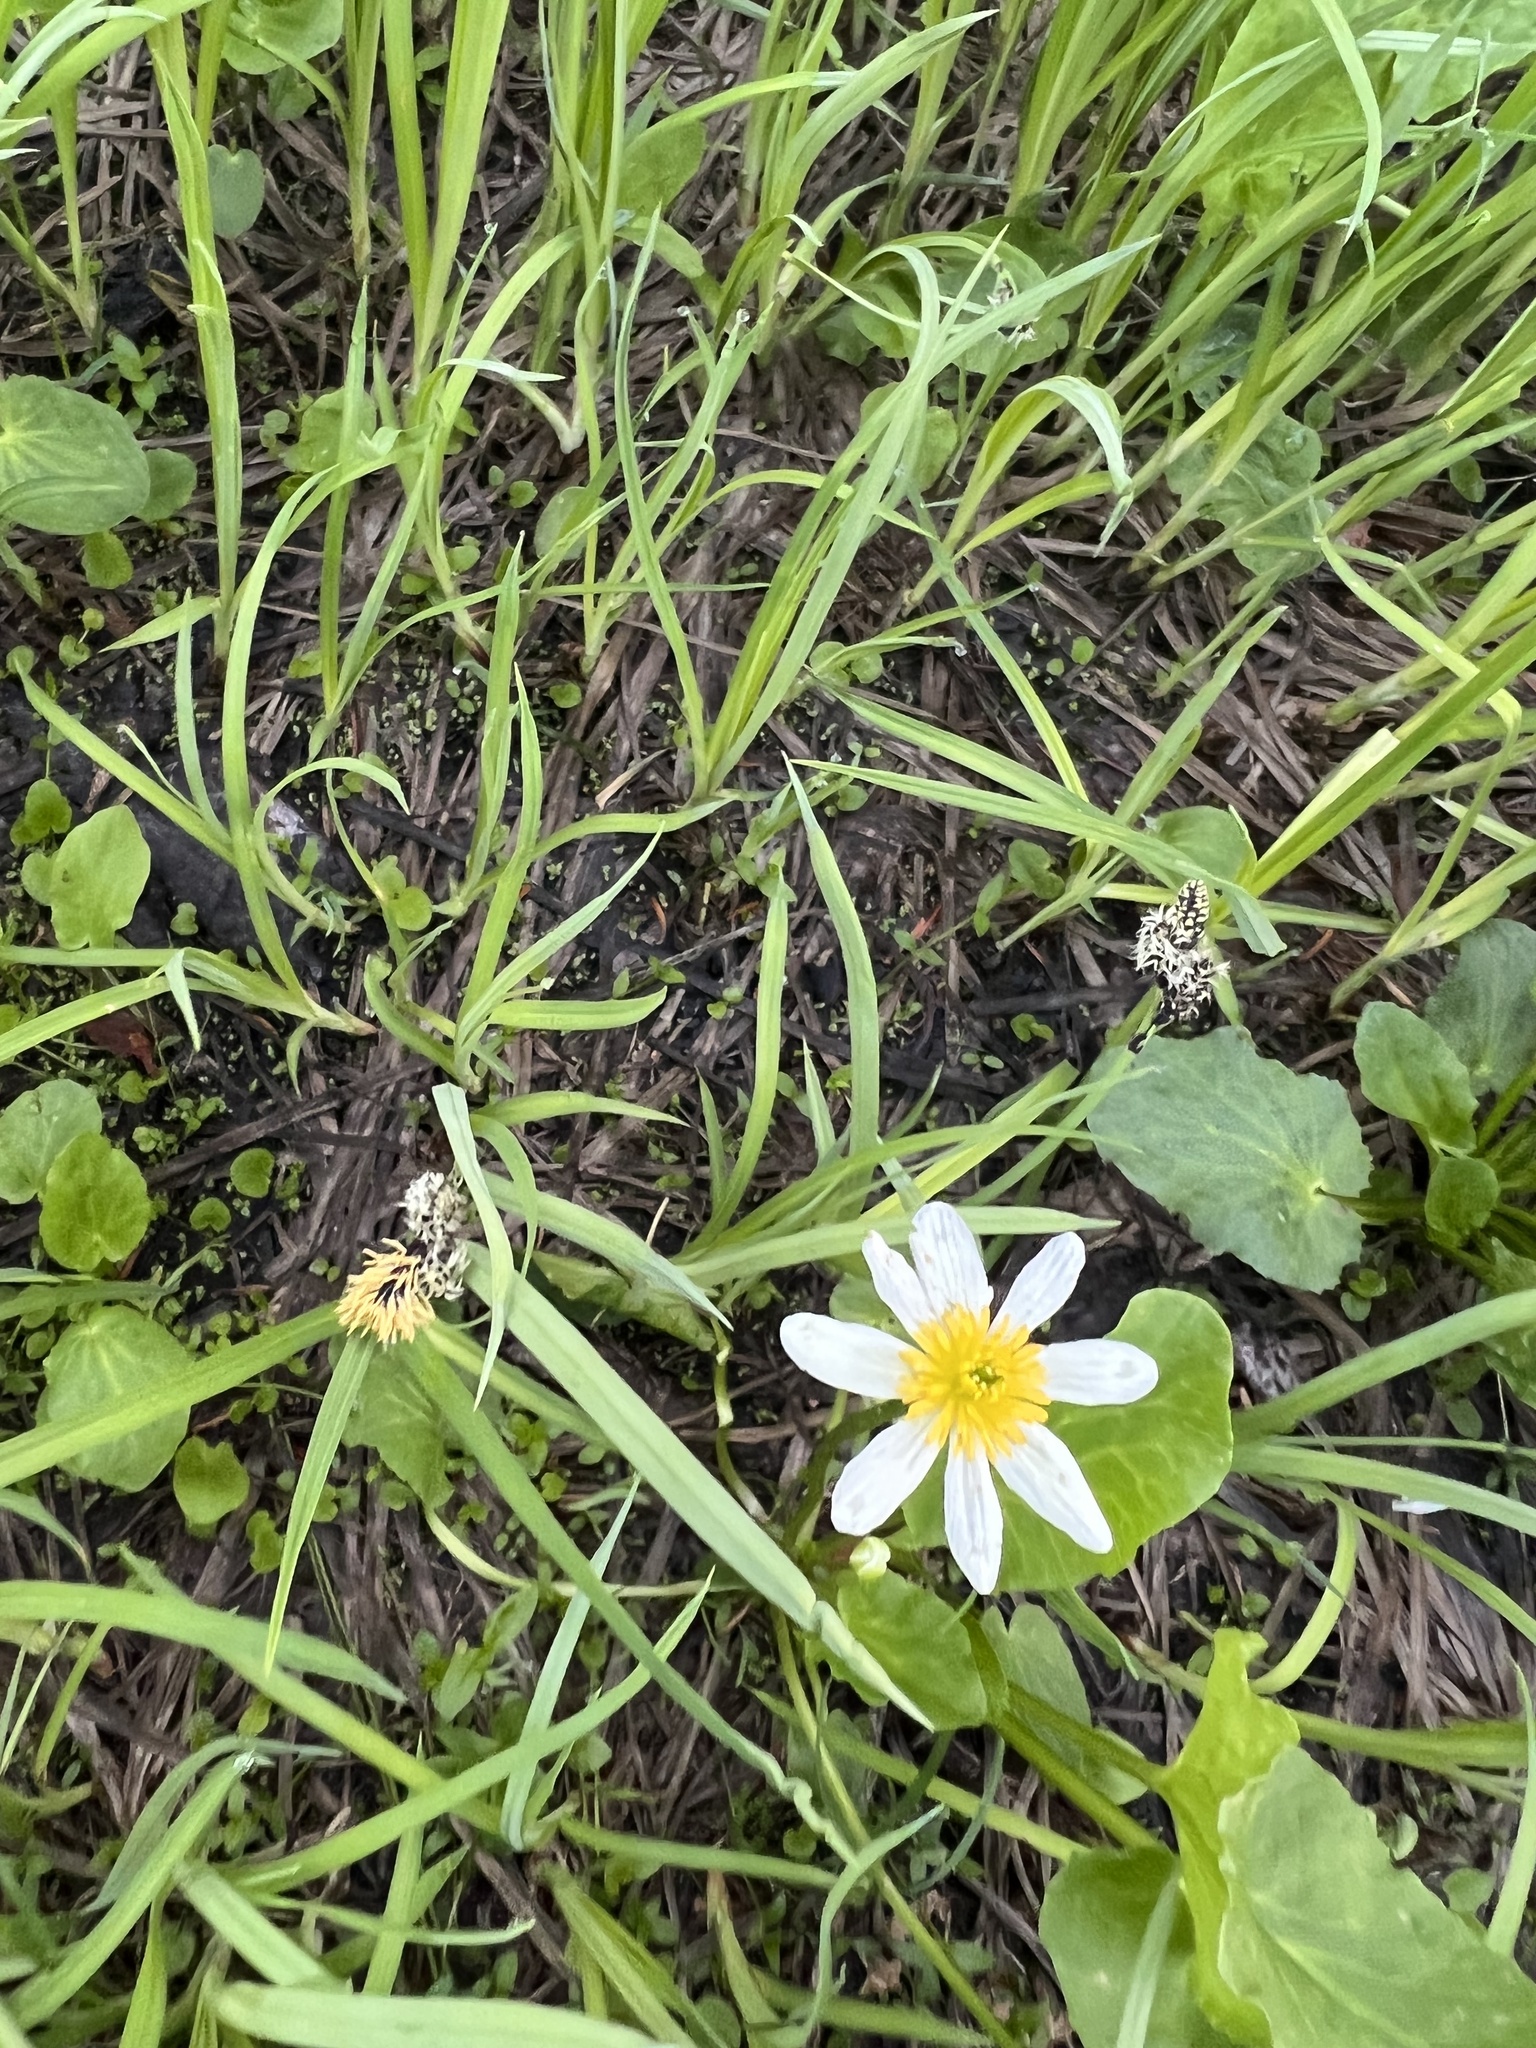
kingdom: Plantae
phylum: Tracheophyta
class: Magnoliopsida
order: Ranunculales
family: Ranunculaceae
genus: Caltha
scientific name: Caltha leptosepala
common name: Elkslip
